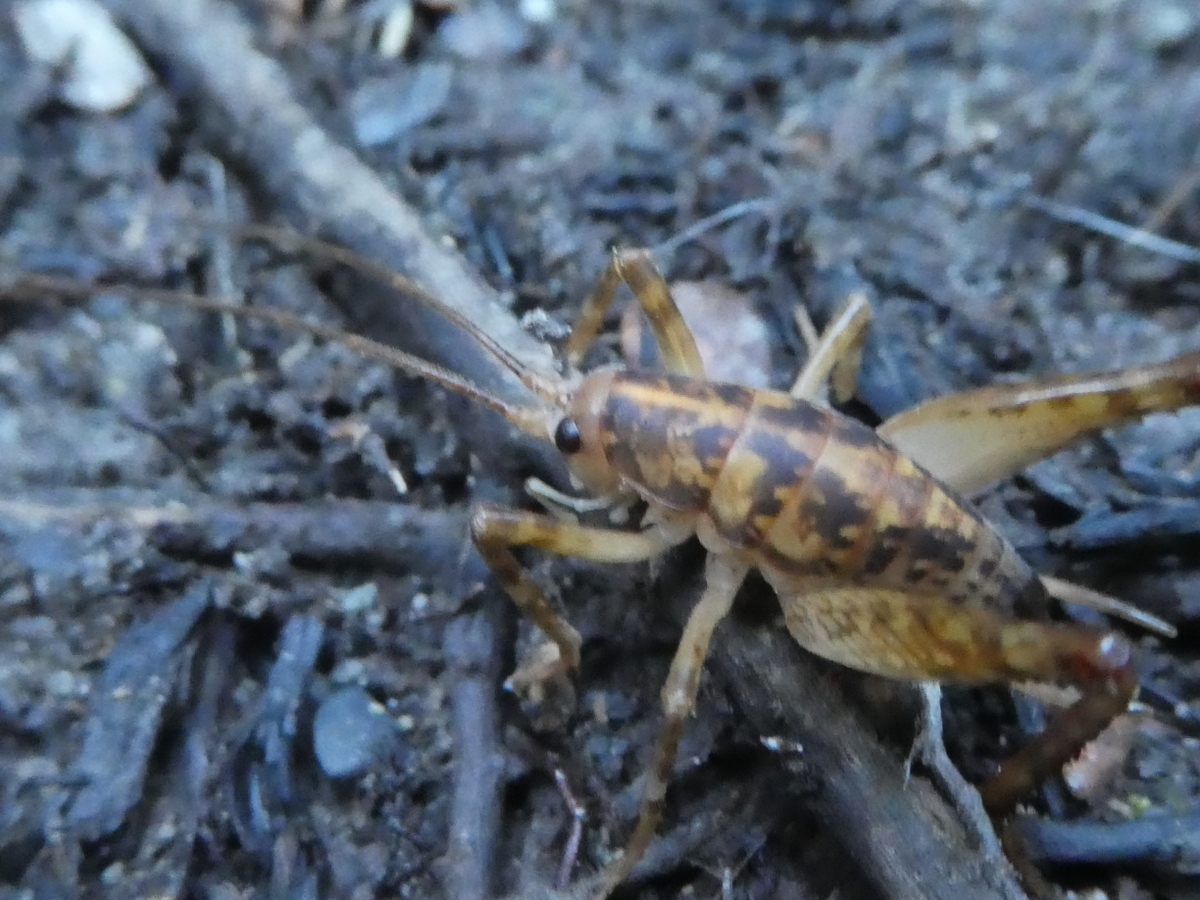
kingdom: Animalia
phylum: Arthropoda
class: Insecta
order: Orthoptera
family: Rhaphidophoridae
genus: Talitropsis
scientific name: Talitropsis sedilloti
